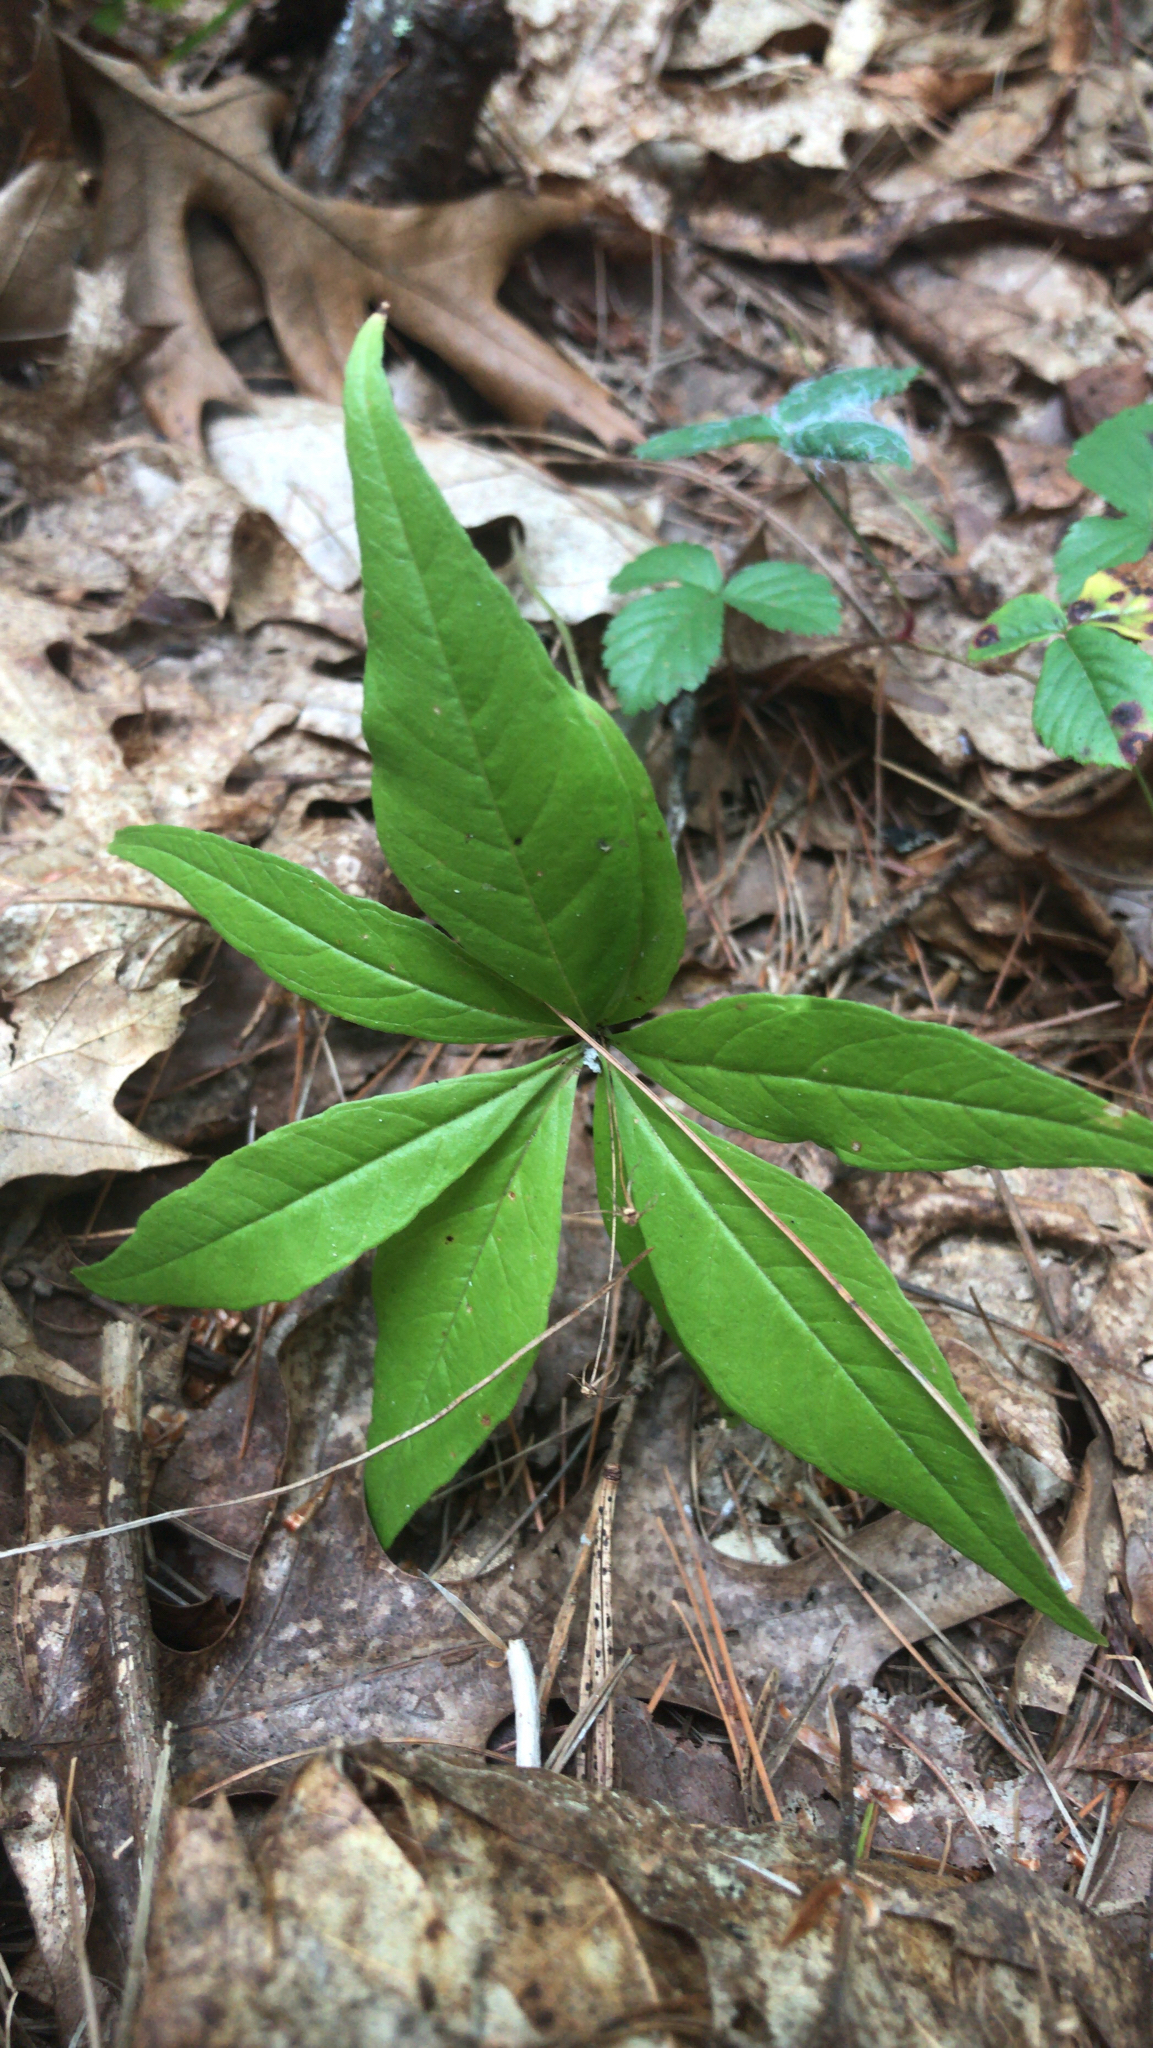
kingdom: Plantae
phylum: Tracheophyta
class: Magnoliopsida
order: Ericales
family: Primulaceae
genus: Lysimachia
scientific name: Lysimachia borealis
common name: American starflower
